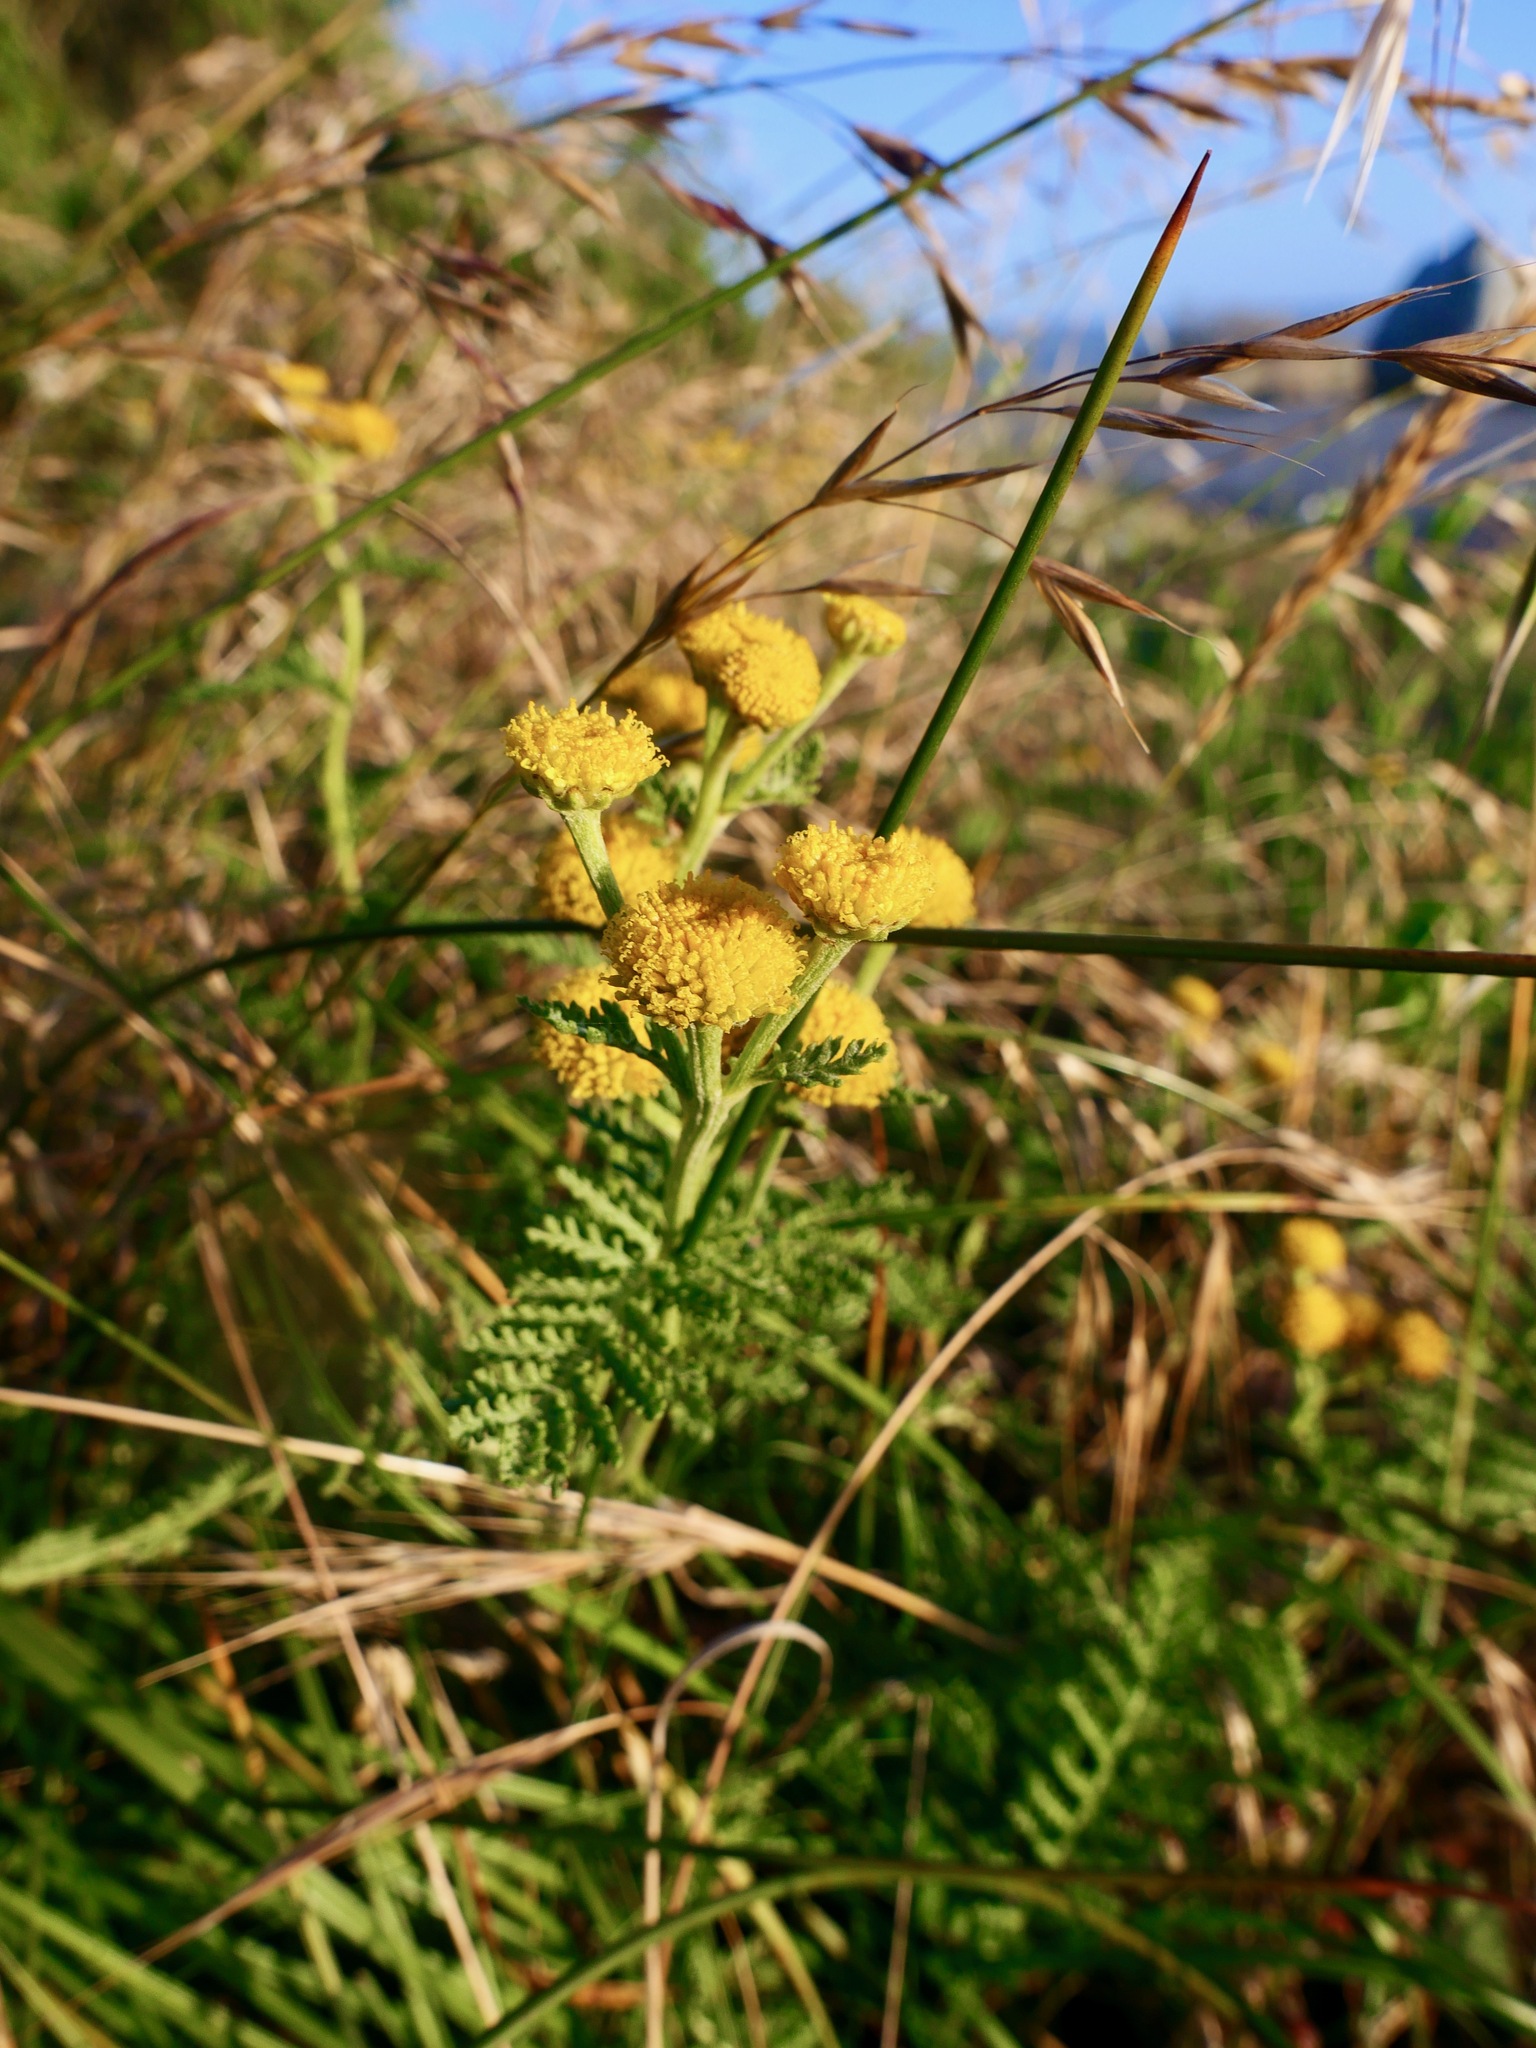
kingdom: Plantae
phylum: Tracheophyta
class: Magnoliopsida
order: Asterales
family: Asteraceae
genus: Tanacetum
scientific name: Tanacetum bipinnatum
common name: Dwarf tansy
